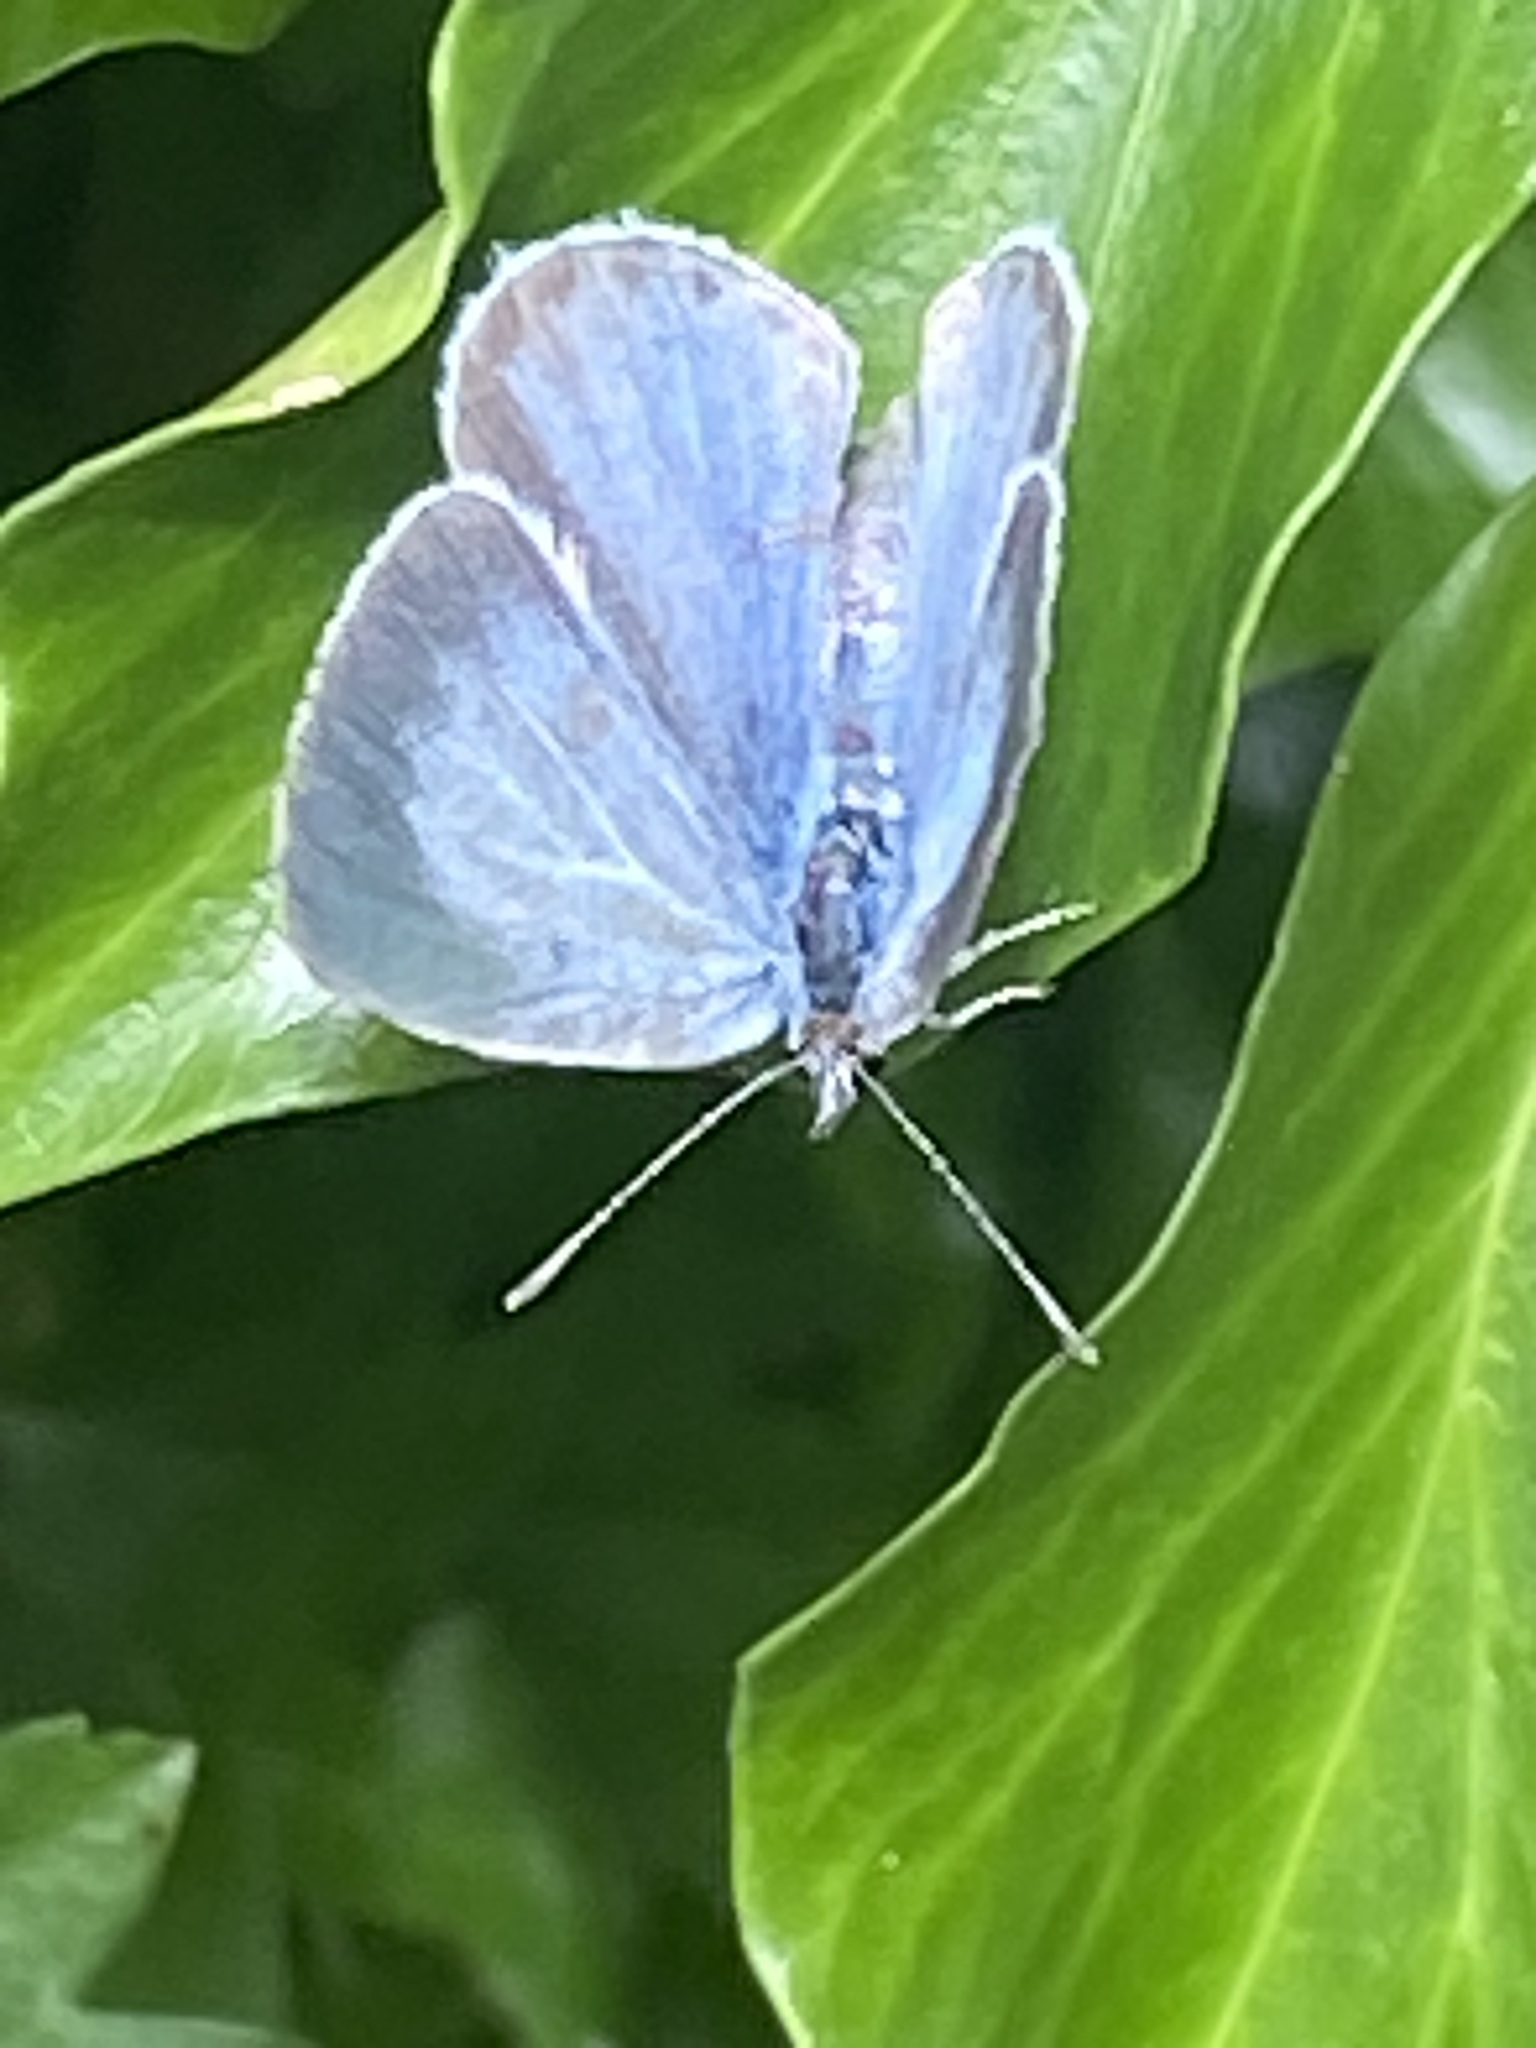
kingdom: Animalia
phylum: Arthropoda
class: Insecta
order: Lepidoptera
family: Lycaenidae
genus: Celastrina
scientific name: Celastrina argiolus
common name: Holly blue
